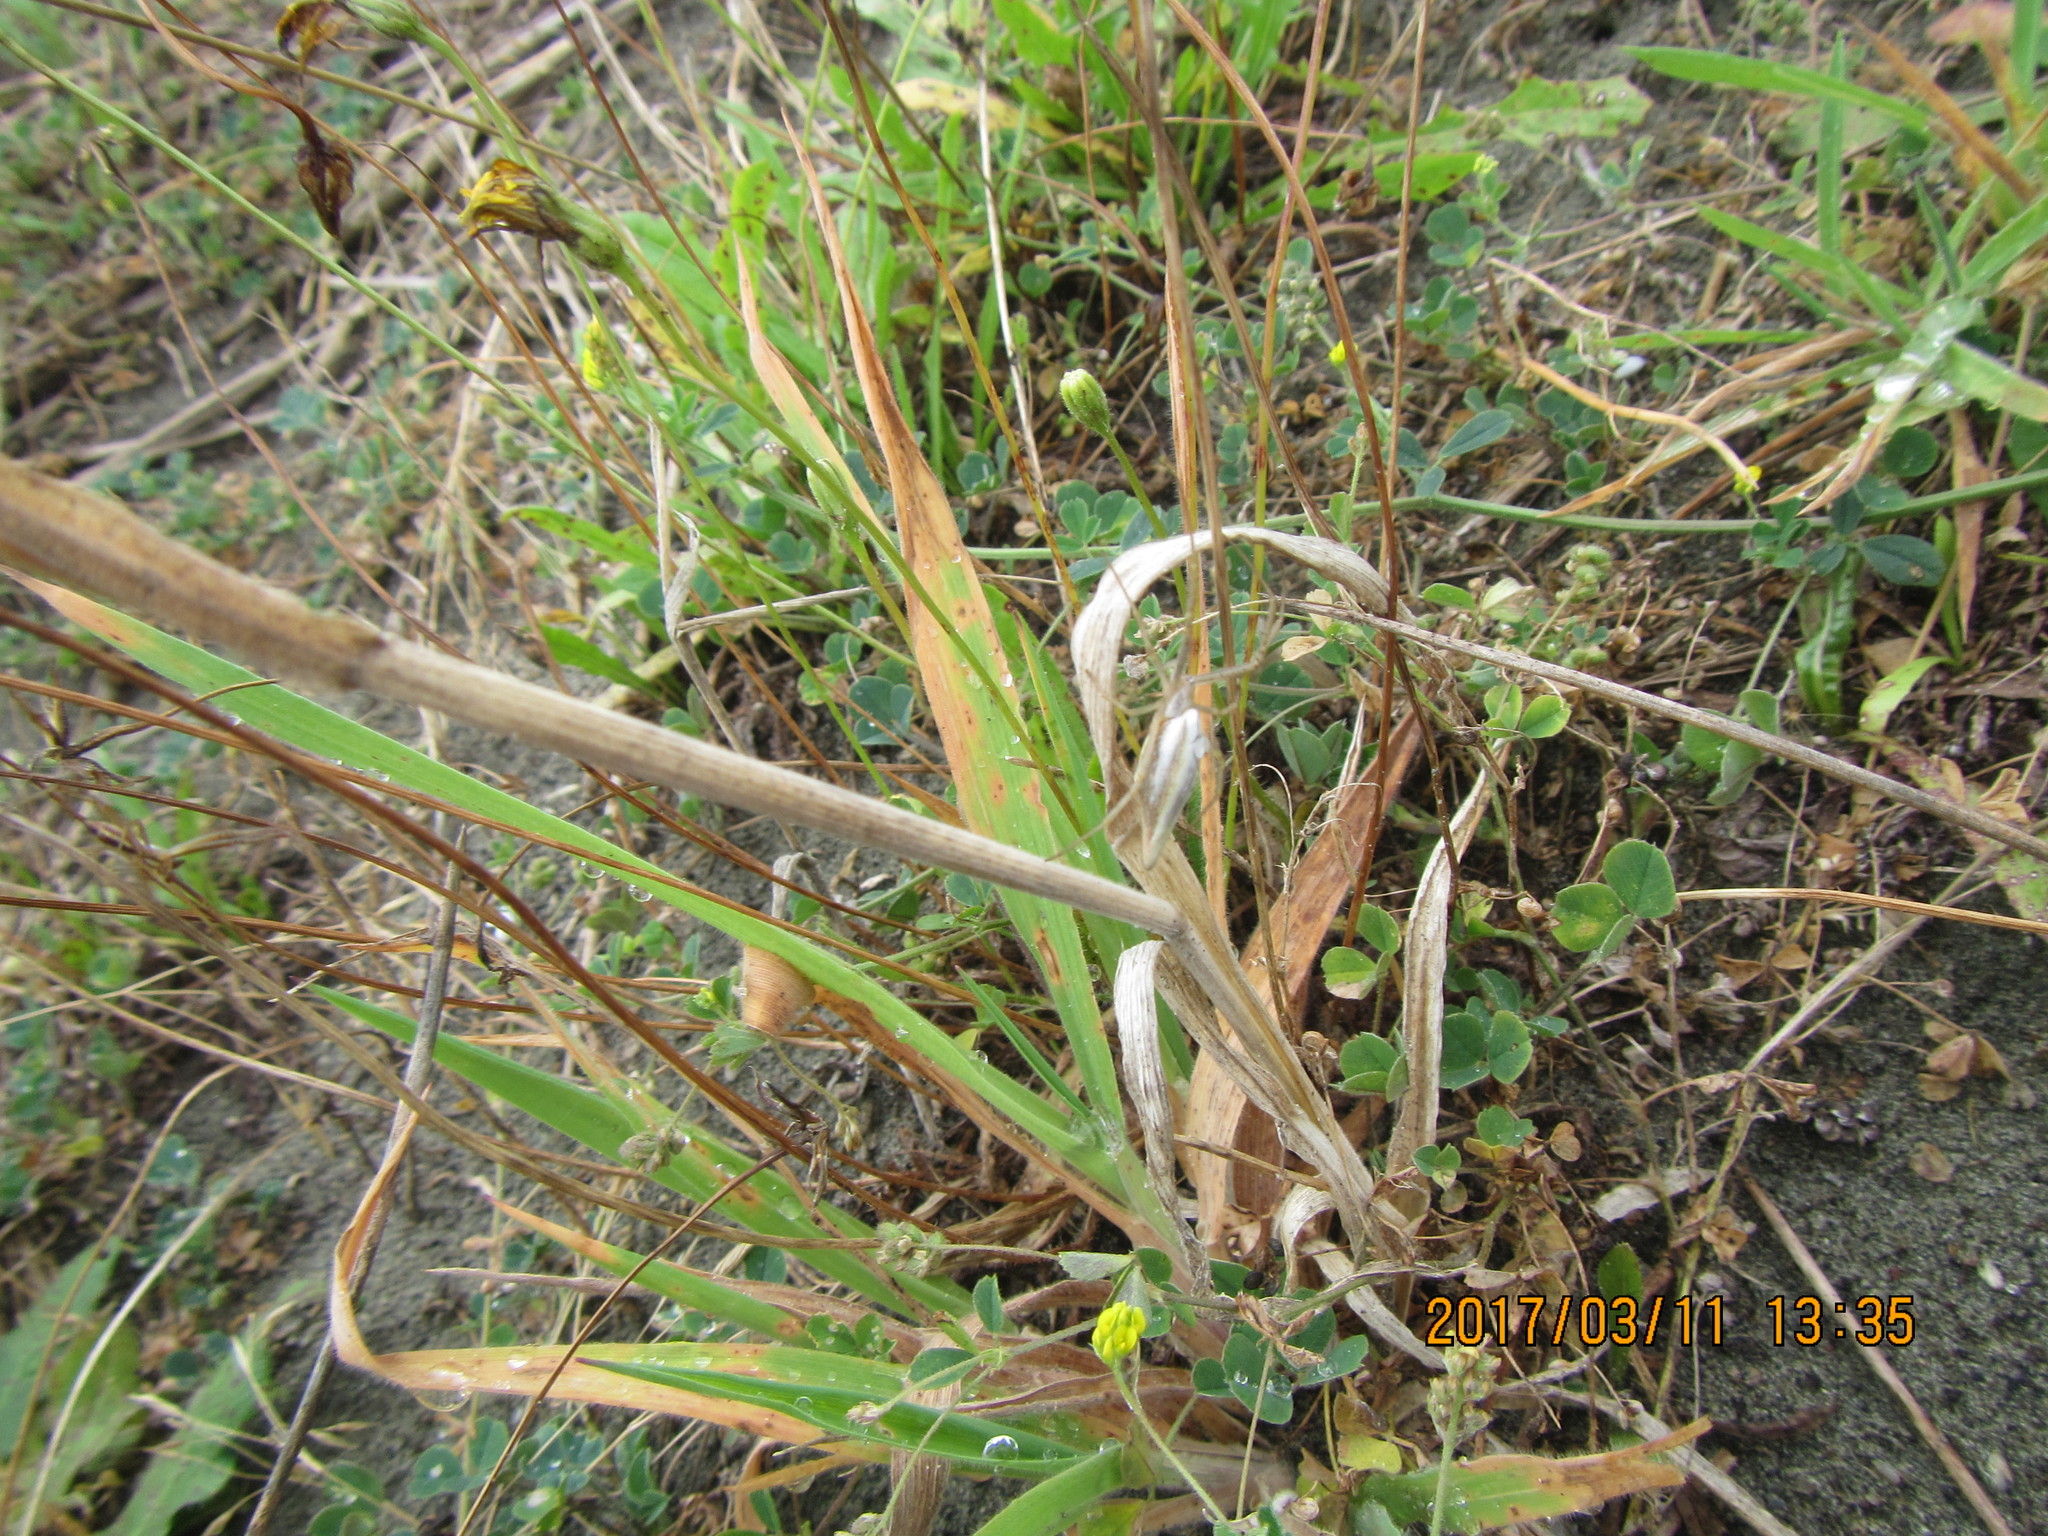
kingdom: Animalia
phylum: Arthropoda
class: Arachnida
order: Araneae
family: Araneidae
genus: Argiope
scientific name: Argiope protensa
